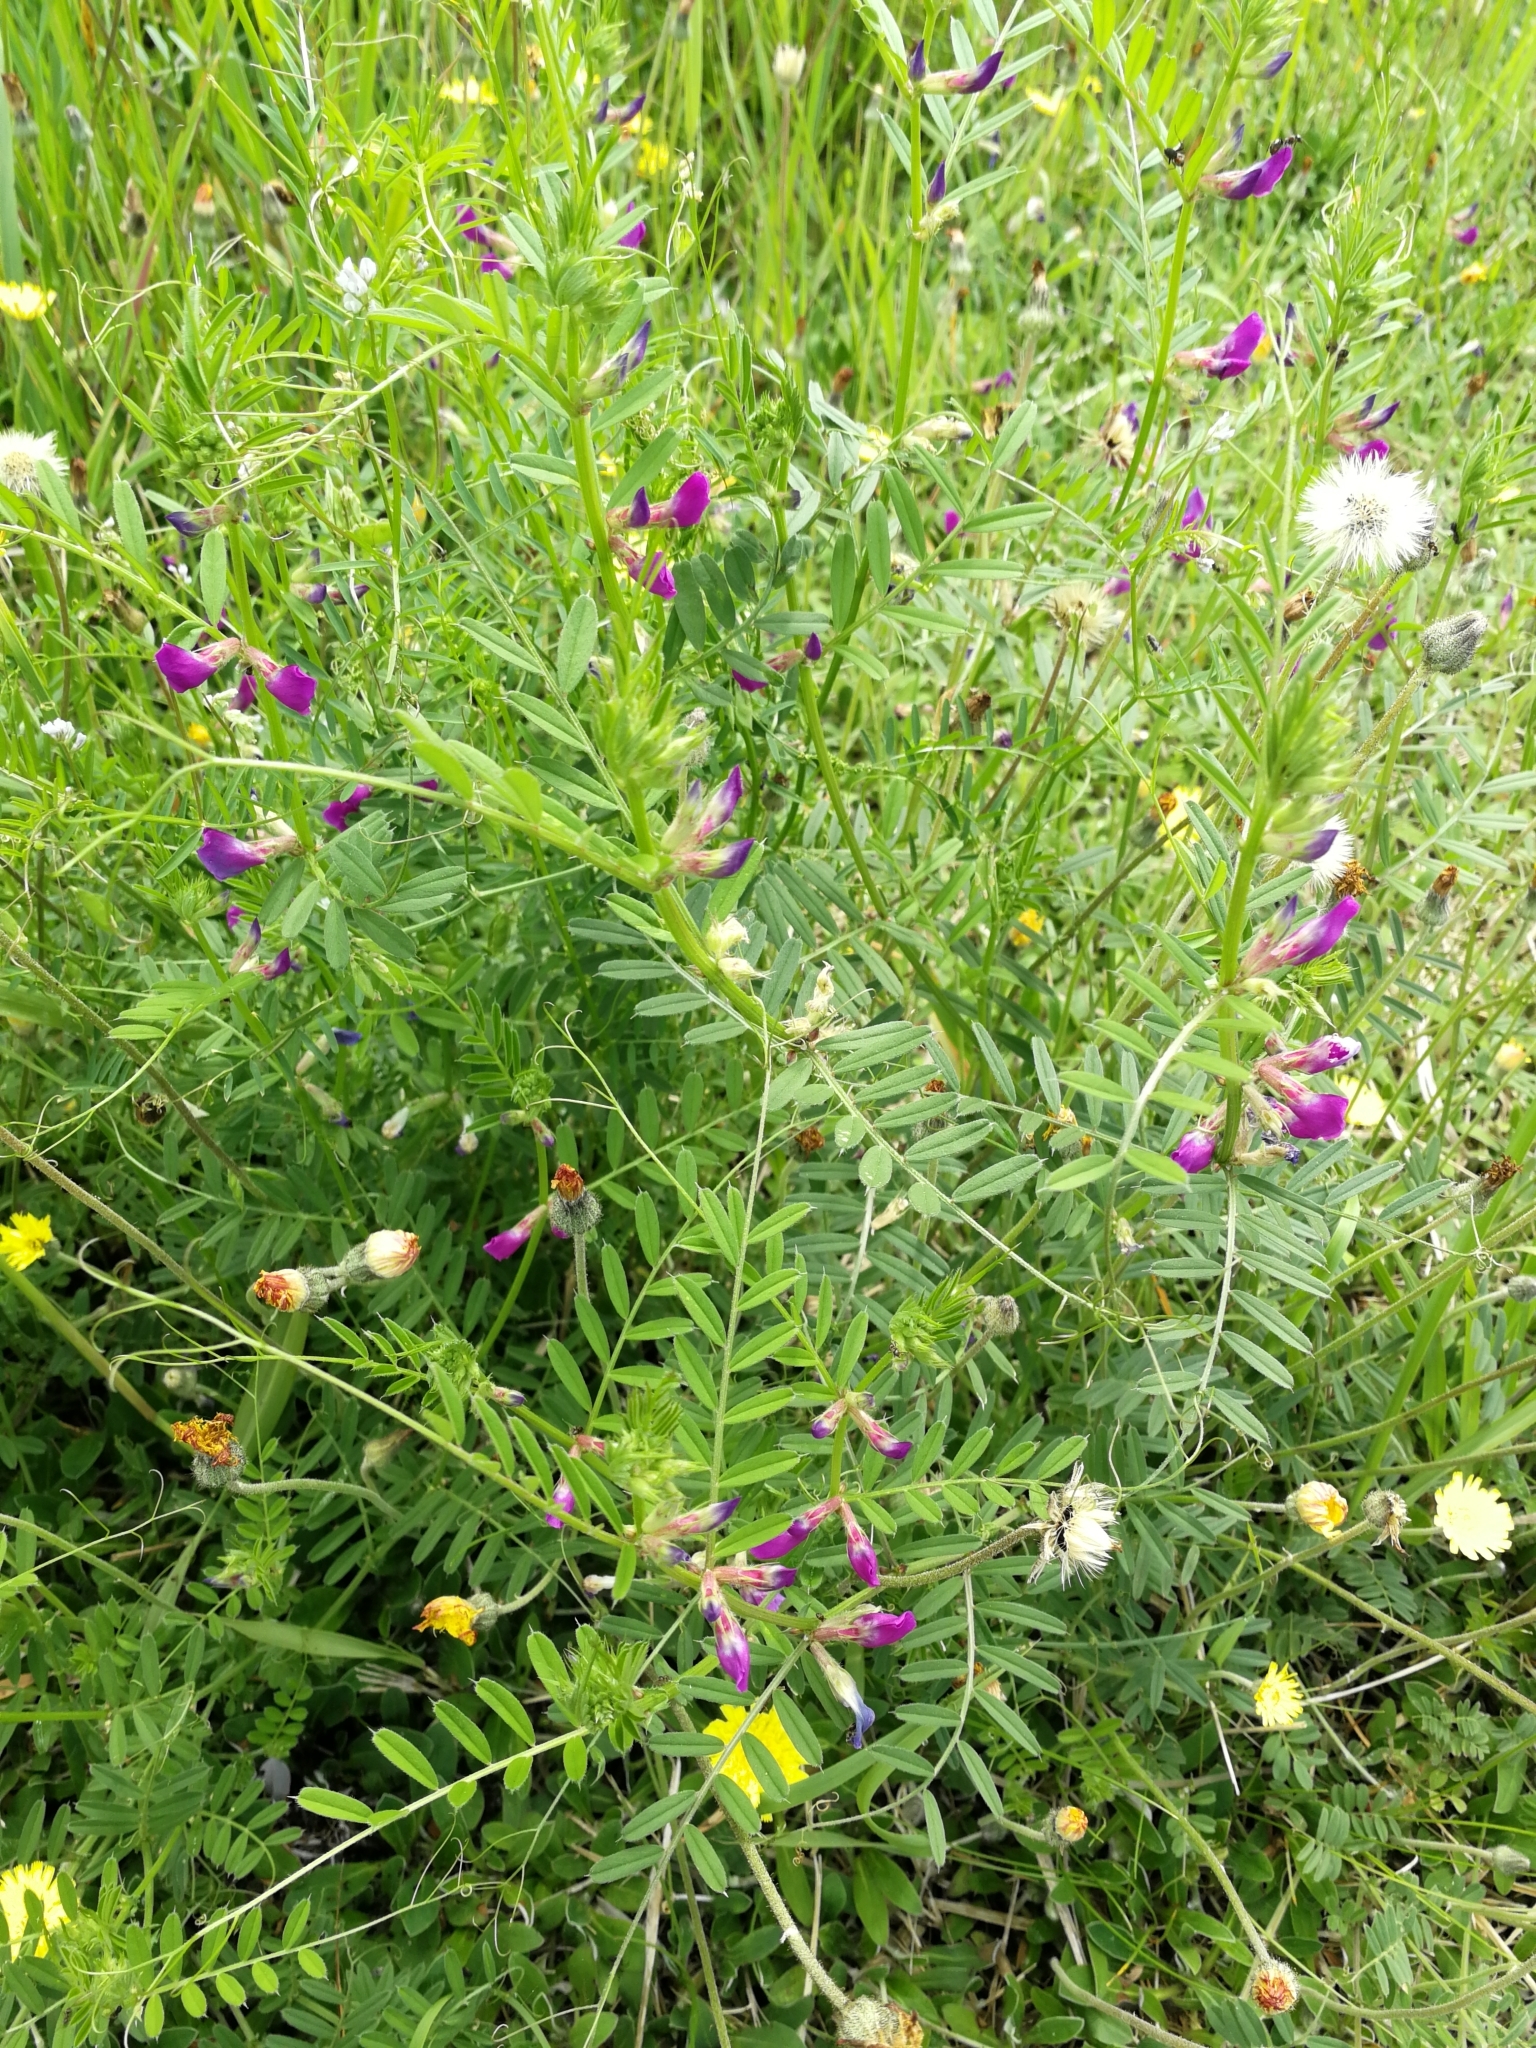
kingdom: Plantae
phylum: Tracheophyta
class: Magnoliopsida
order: Fabales
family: Fabaceae
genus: Vicia
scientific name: Vicia sativa
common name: Garden vetch
